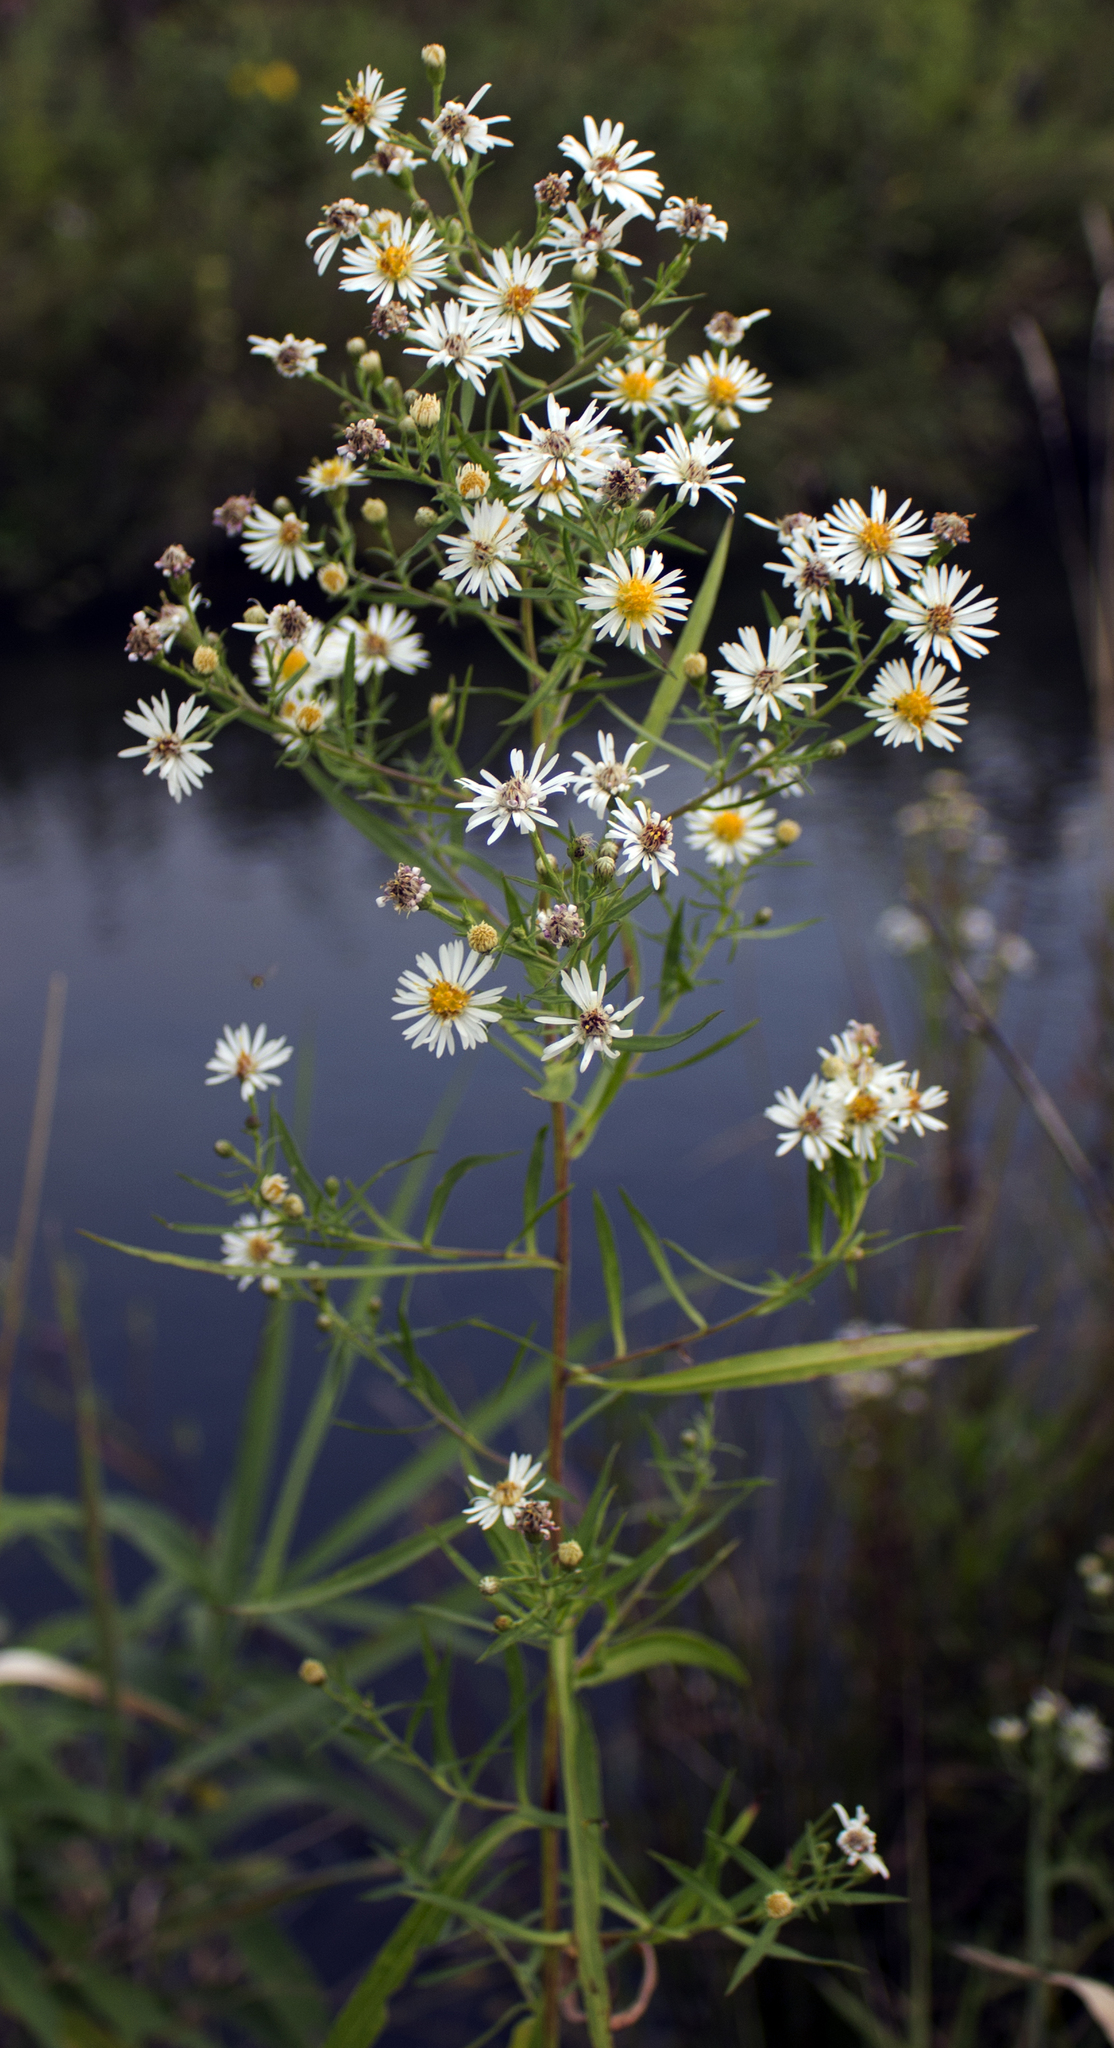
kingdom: Plantae
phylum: Tracheophyta
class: Magnoliopsida
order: Asterales
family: Asteraceae
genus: Symphyotrichum
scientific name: Symphyotrichum lanceolatum
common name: Panicled aster
